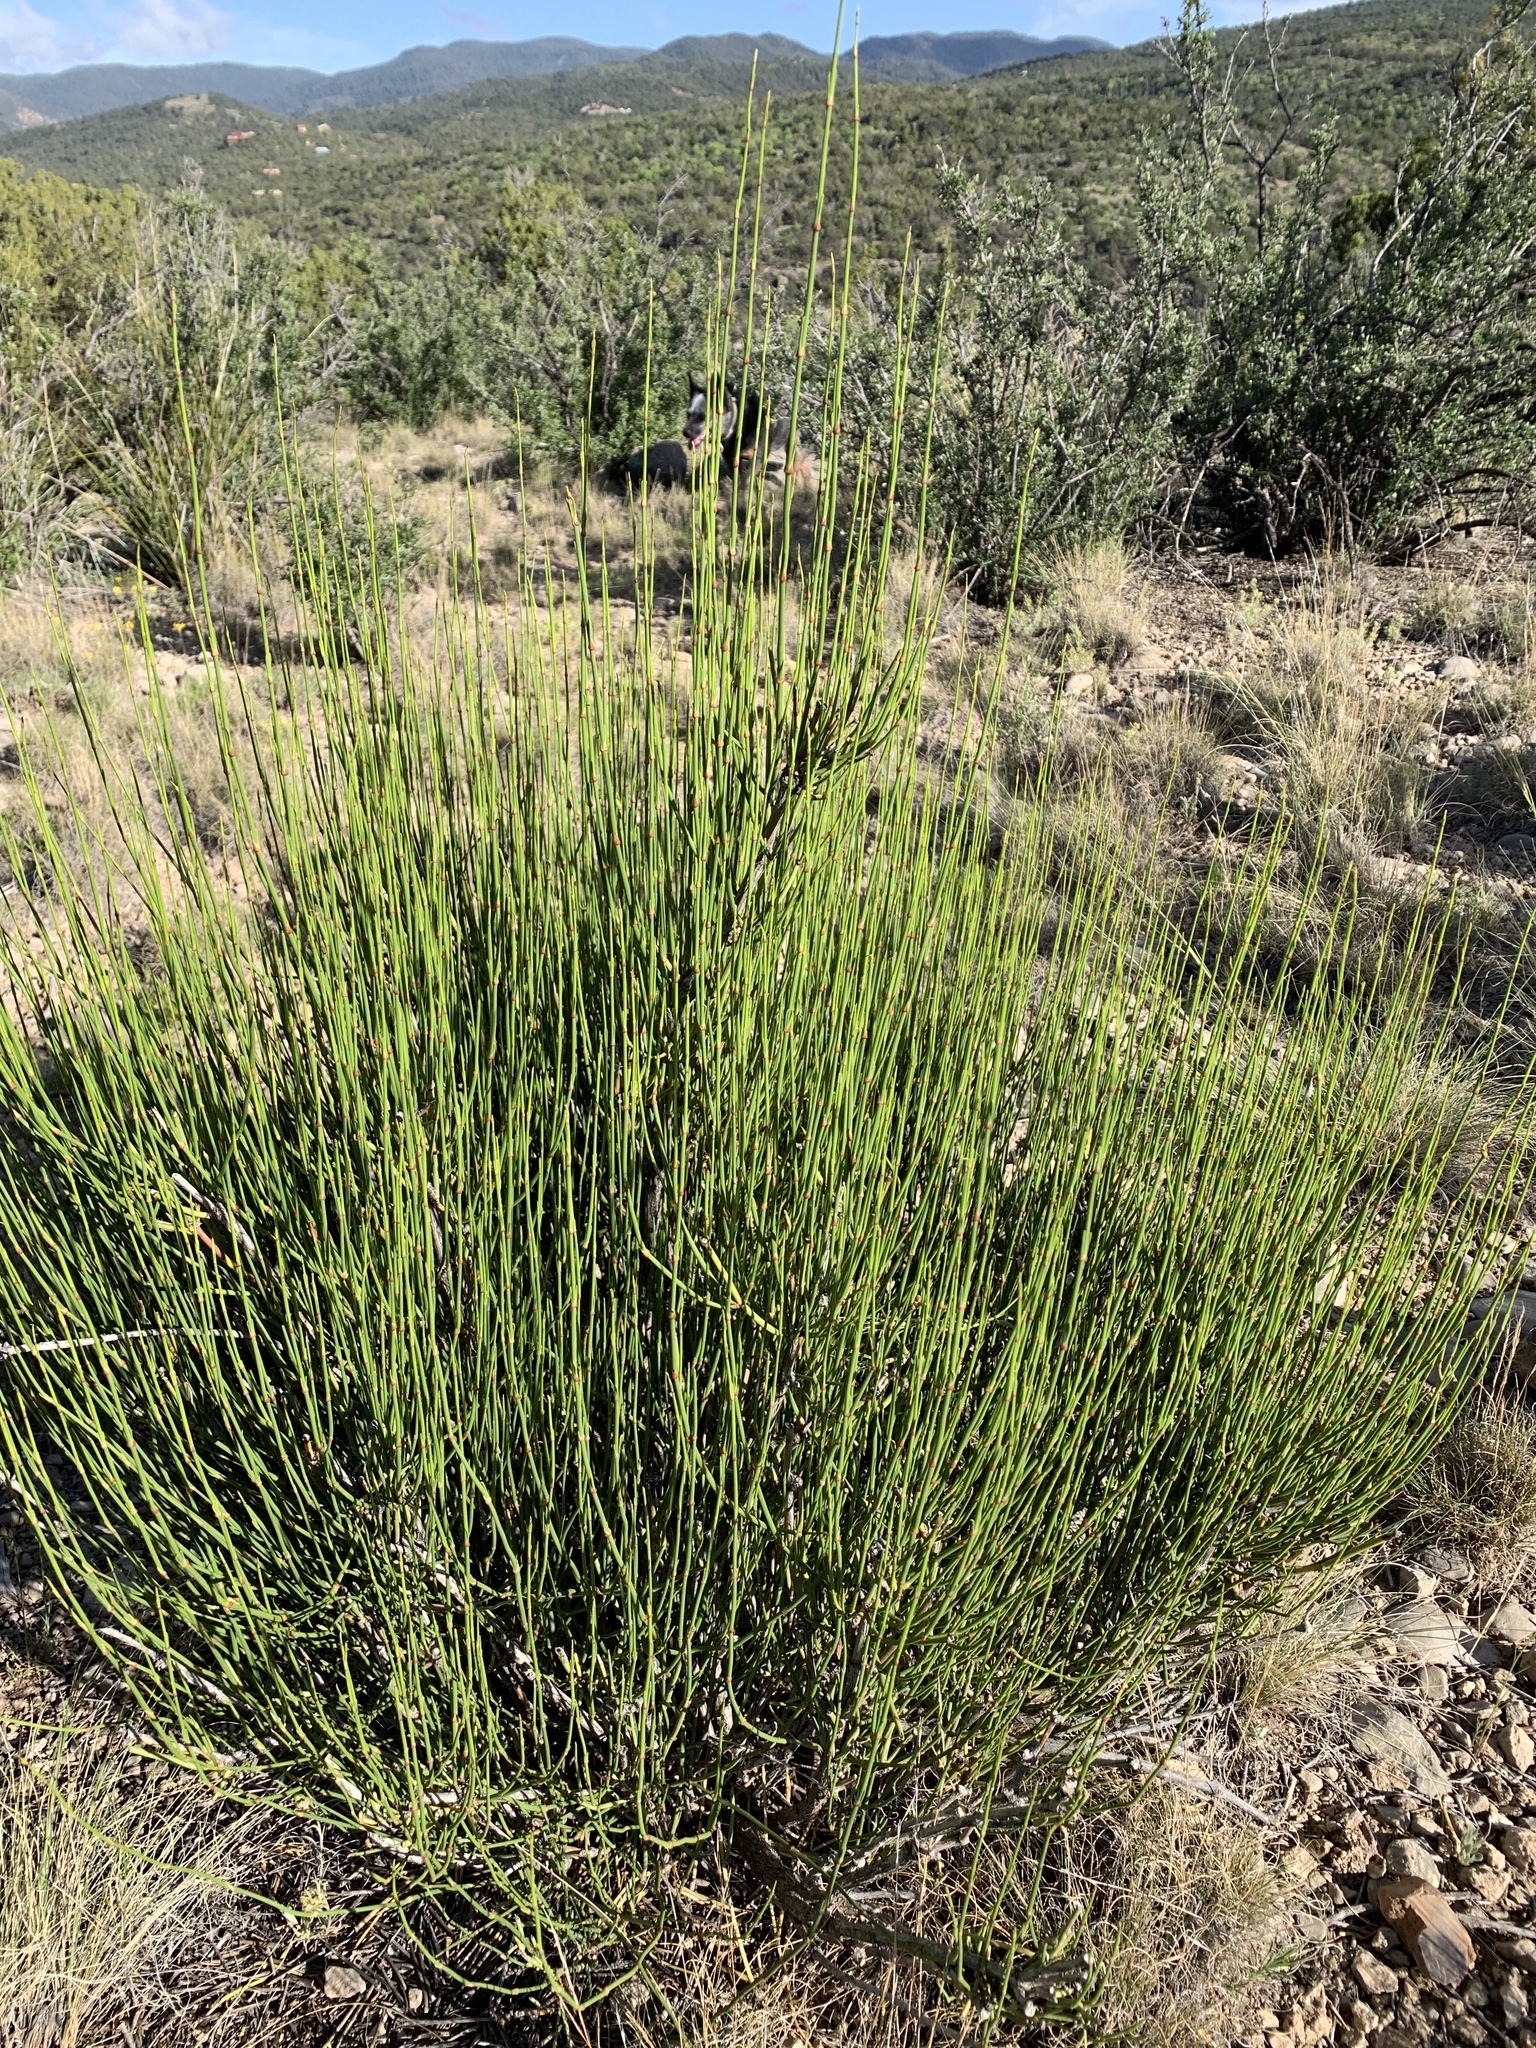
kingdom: Plantae
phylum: Tracheophyta
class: Gnetopsida
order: Ephedrales
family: Ephedraceae
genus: Ephedra
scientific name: Ephedra viridis
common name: Green ephedra
